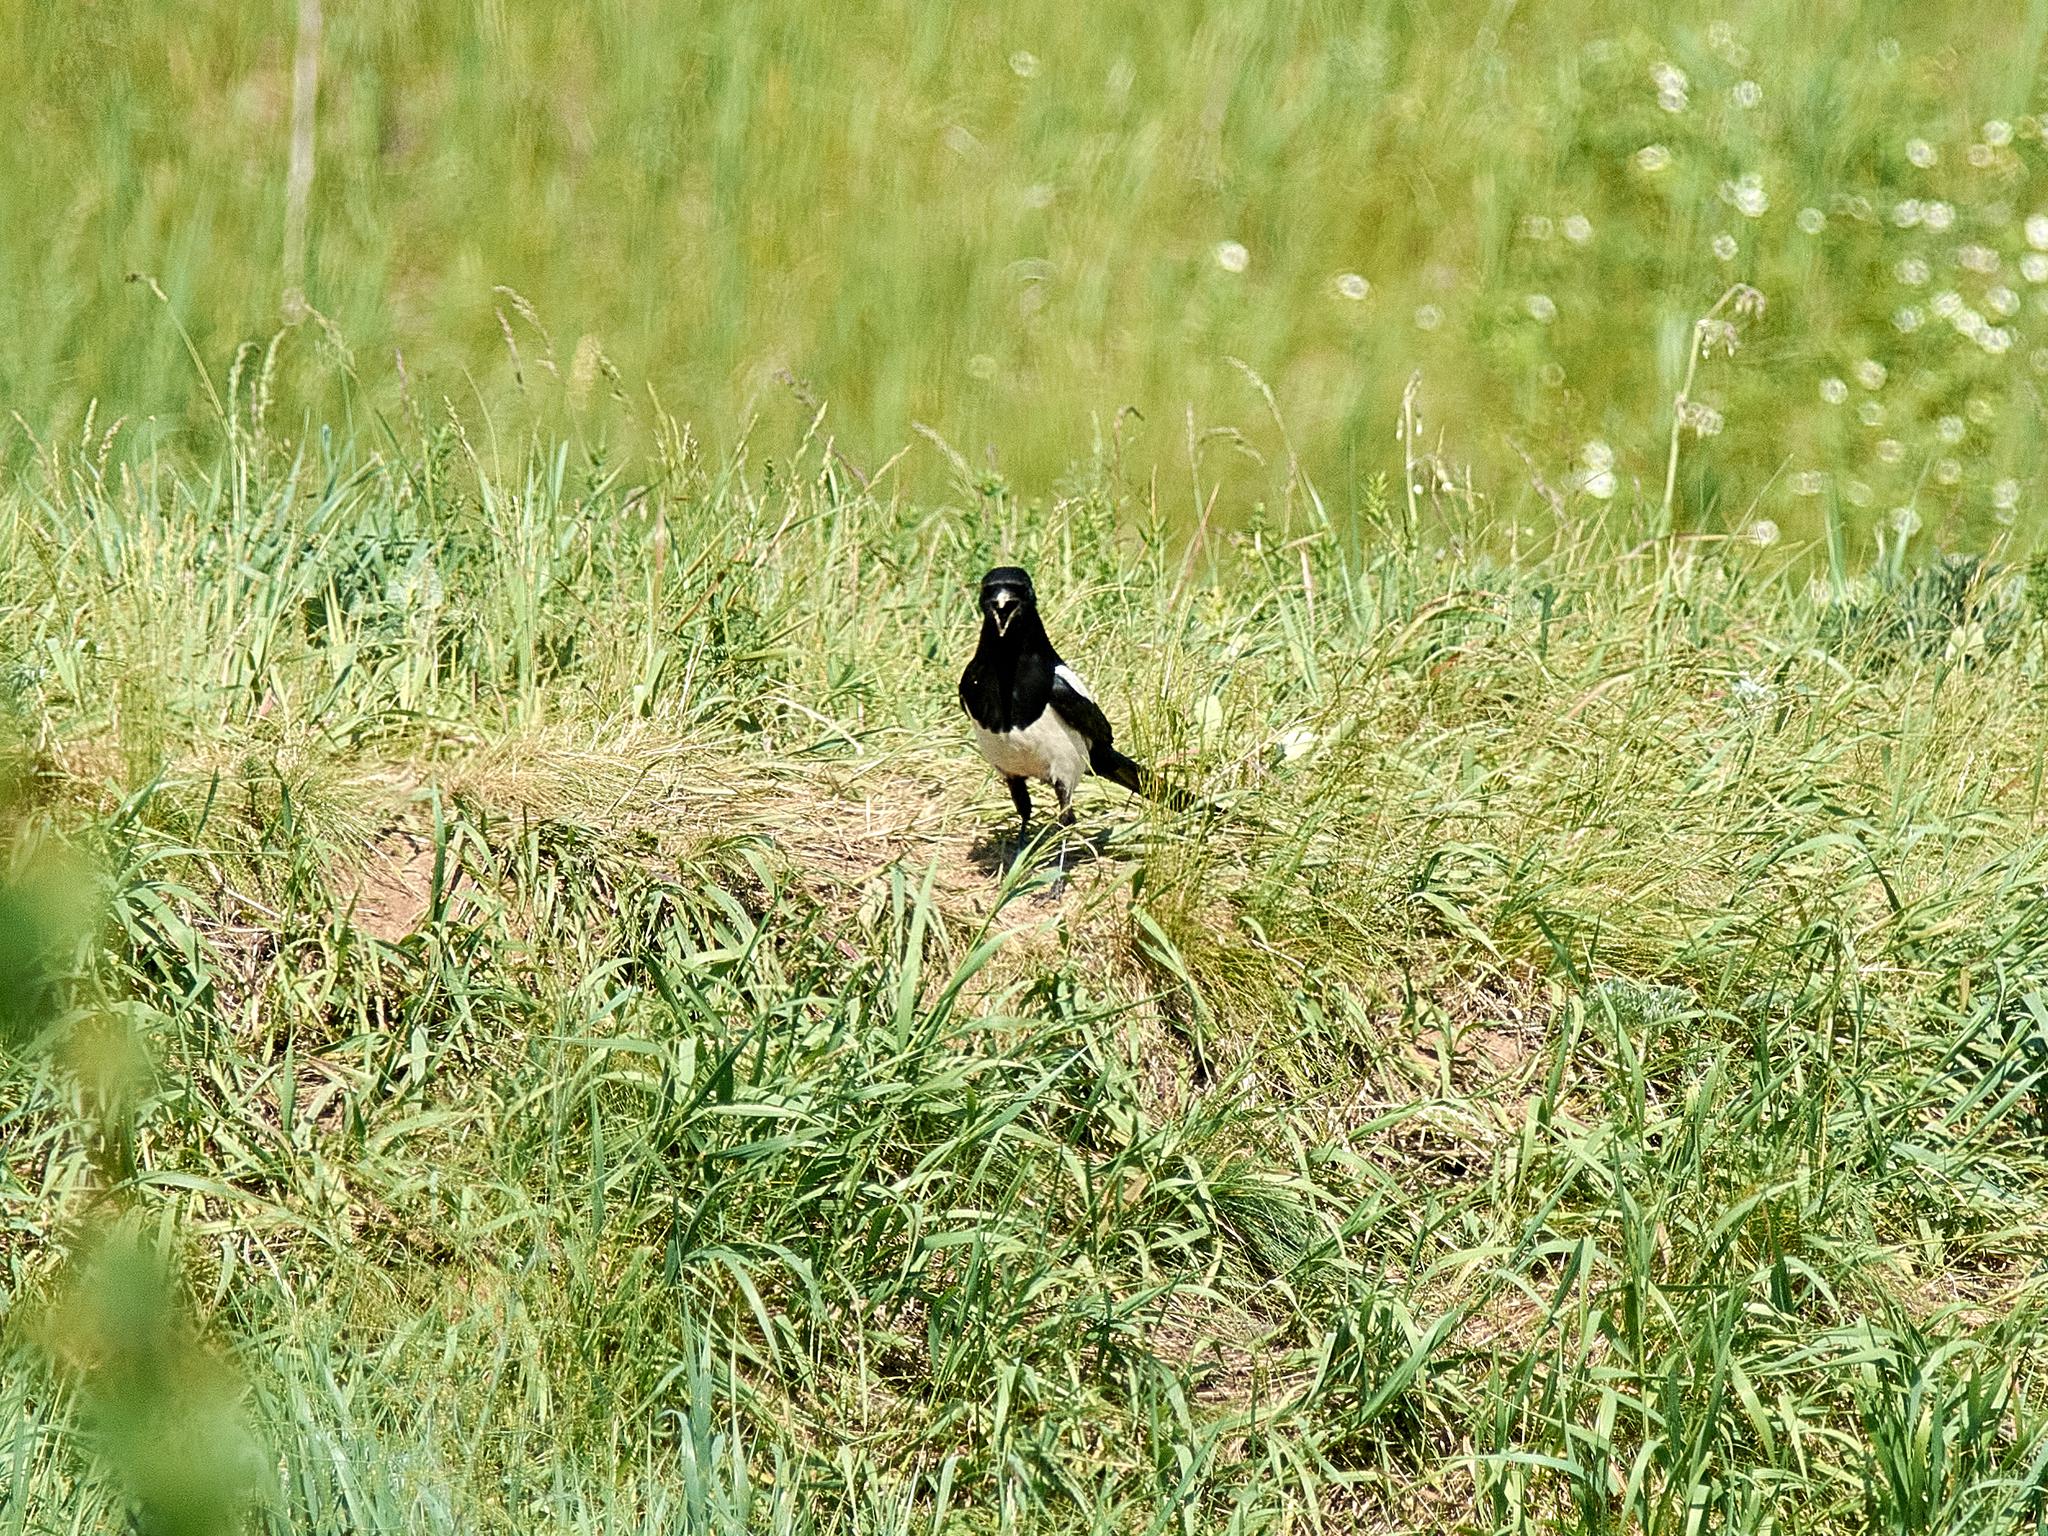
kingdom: Animalia
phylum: Chordata
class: Aves
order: Passeriformes
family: Corvidae
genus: Pica
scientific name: Pica pica
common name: Eurasian magpie
